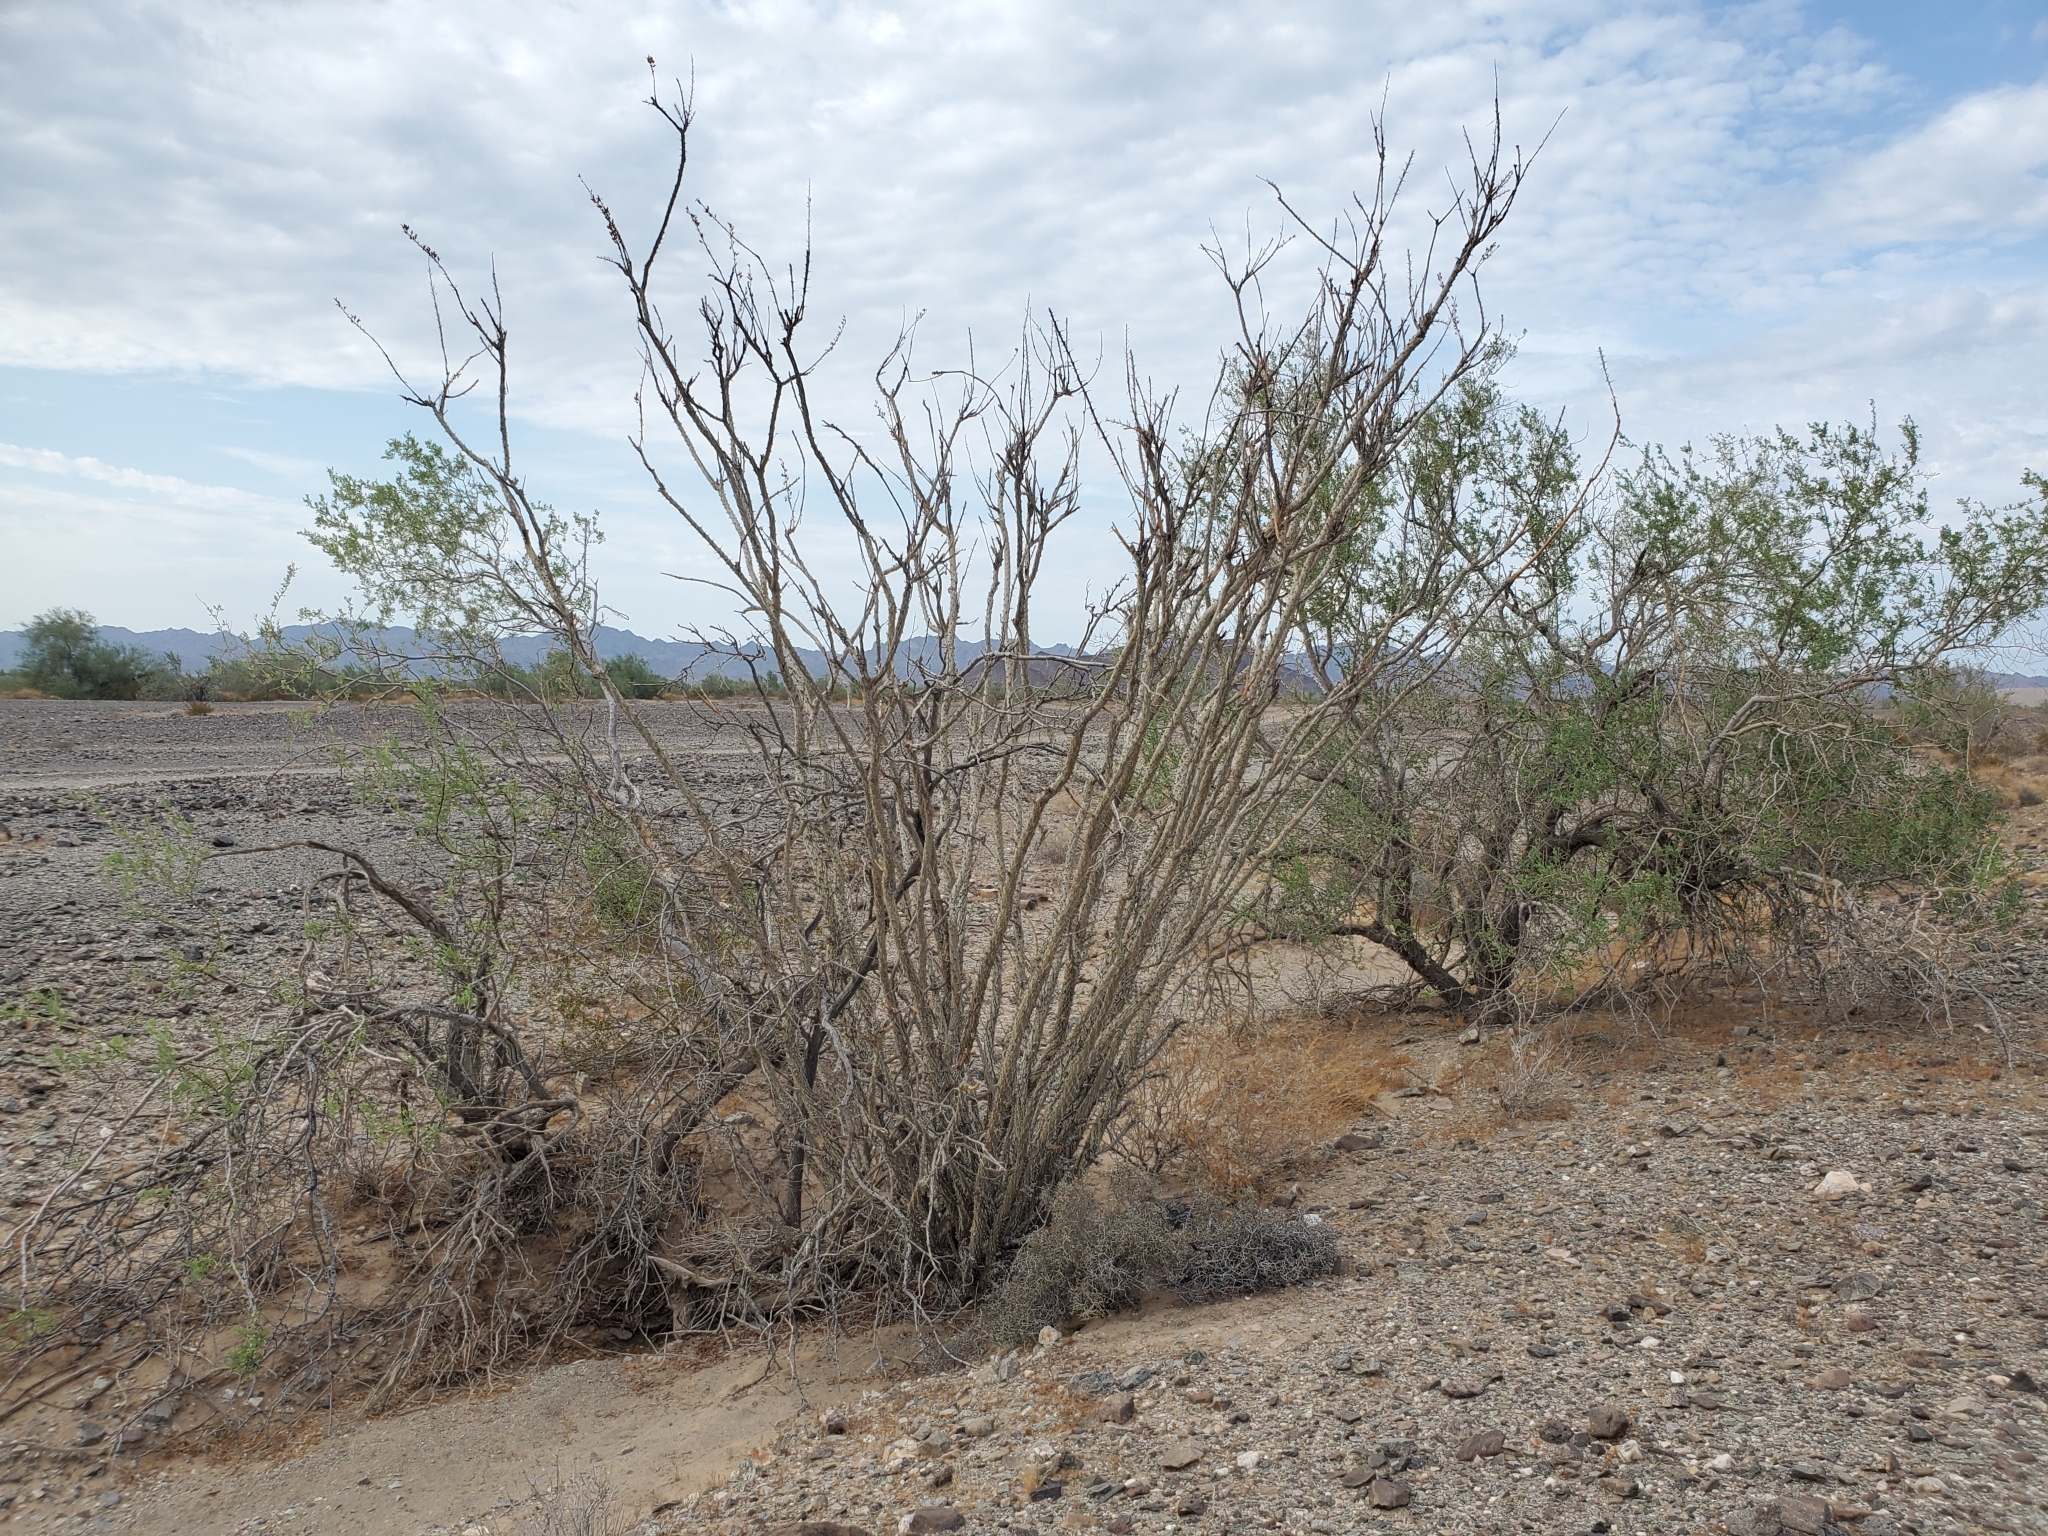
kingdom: Plantae
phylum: Tracheophyta
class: Magnoliopsida
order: Ericales
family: Fouquieriaceae
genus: Fouquieria
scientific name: Fouquieria splendens
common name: Vine-cactus
